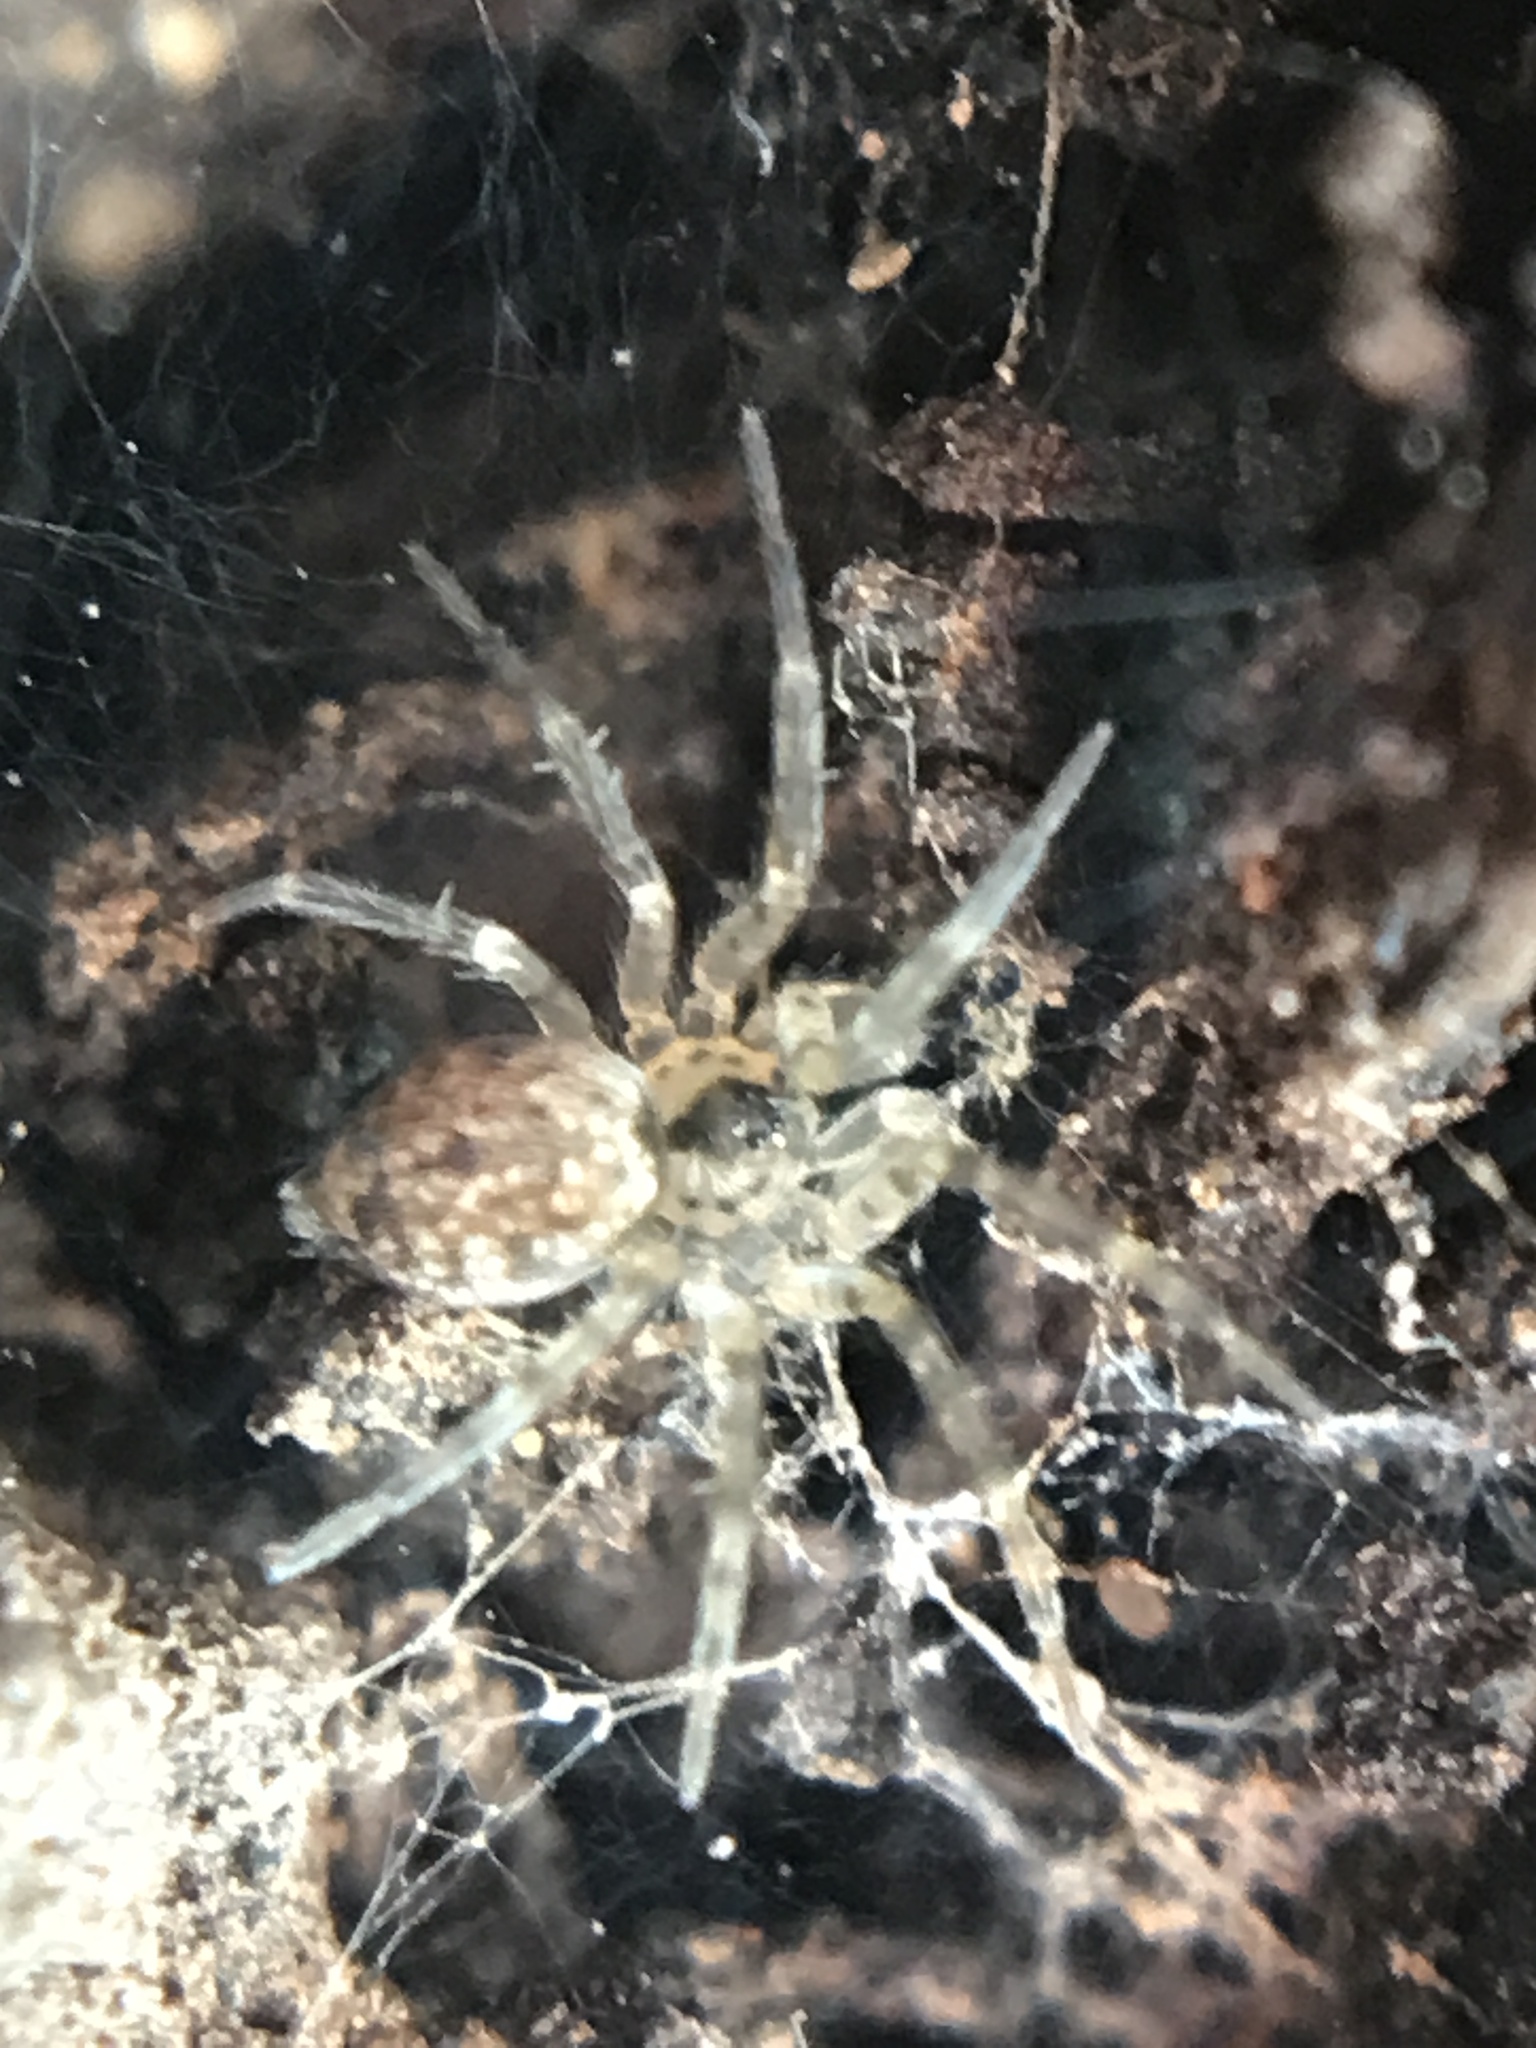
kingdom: Animalia
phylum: Arthropoda
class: Arachnida
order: Araneae
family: Oecobiidae
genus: Oecobius
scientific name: Oecobius navus
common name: Flatmesh weaver
